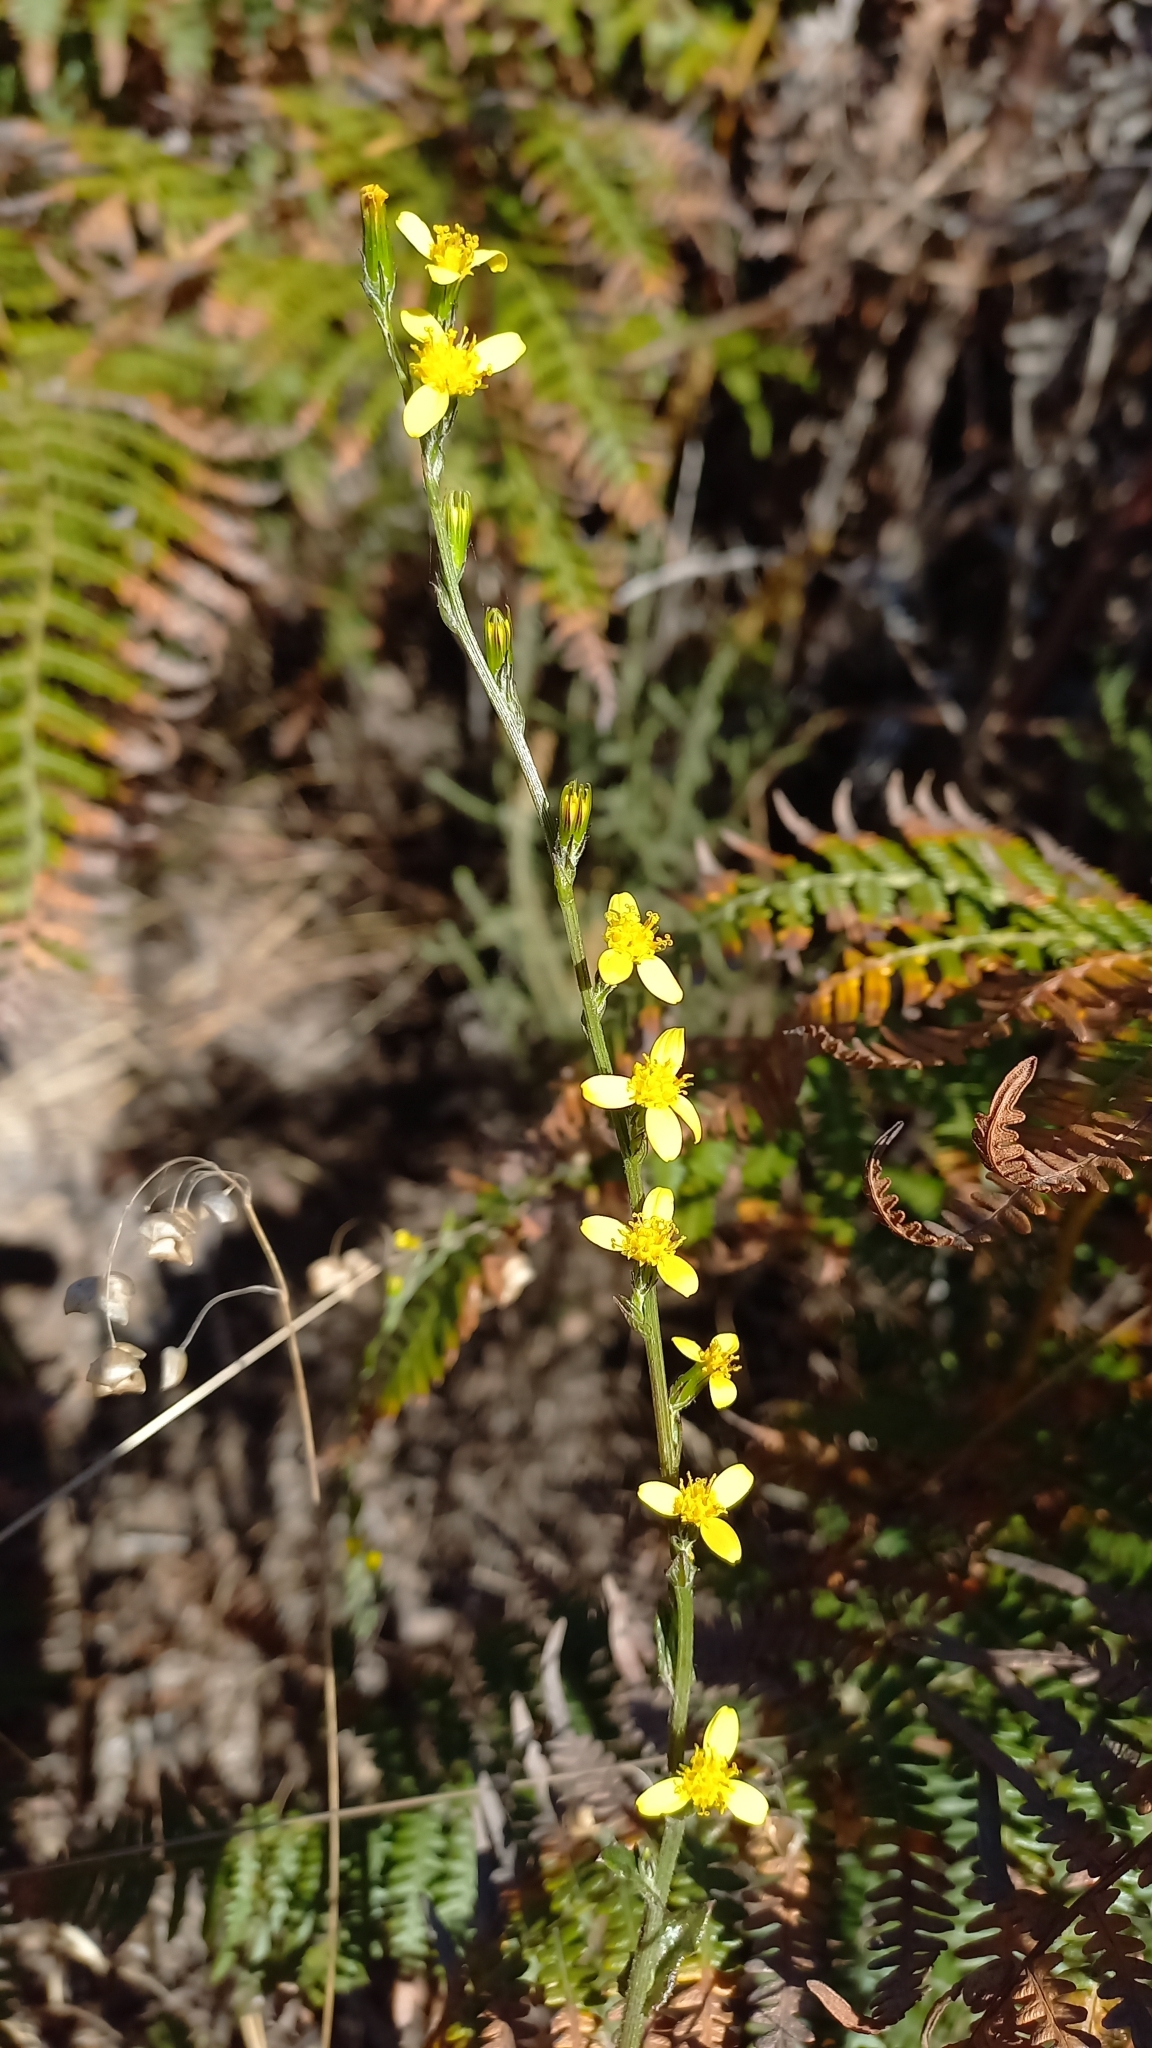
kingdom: Plantae
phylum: Tracheophyta
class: Magnoliopsida
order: Asterales
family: Asteraceae
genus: Senecio
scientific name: Senecio pubigerus
